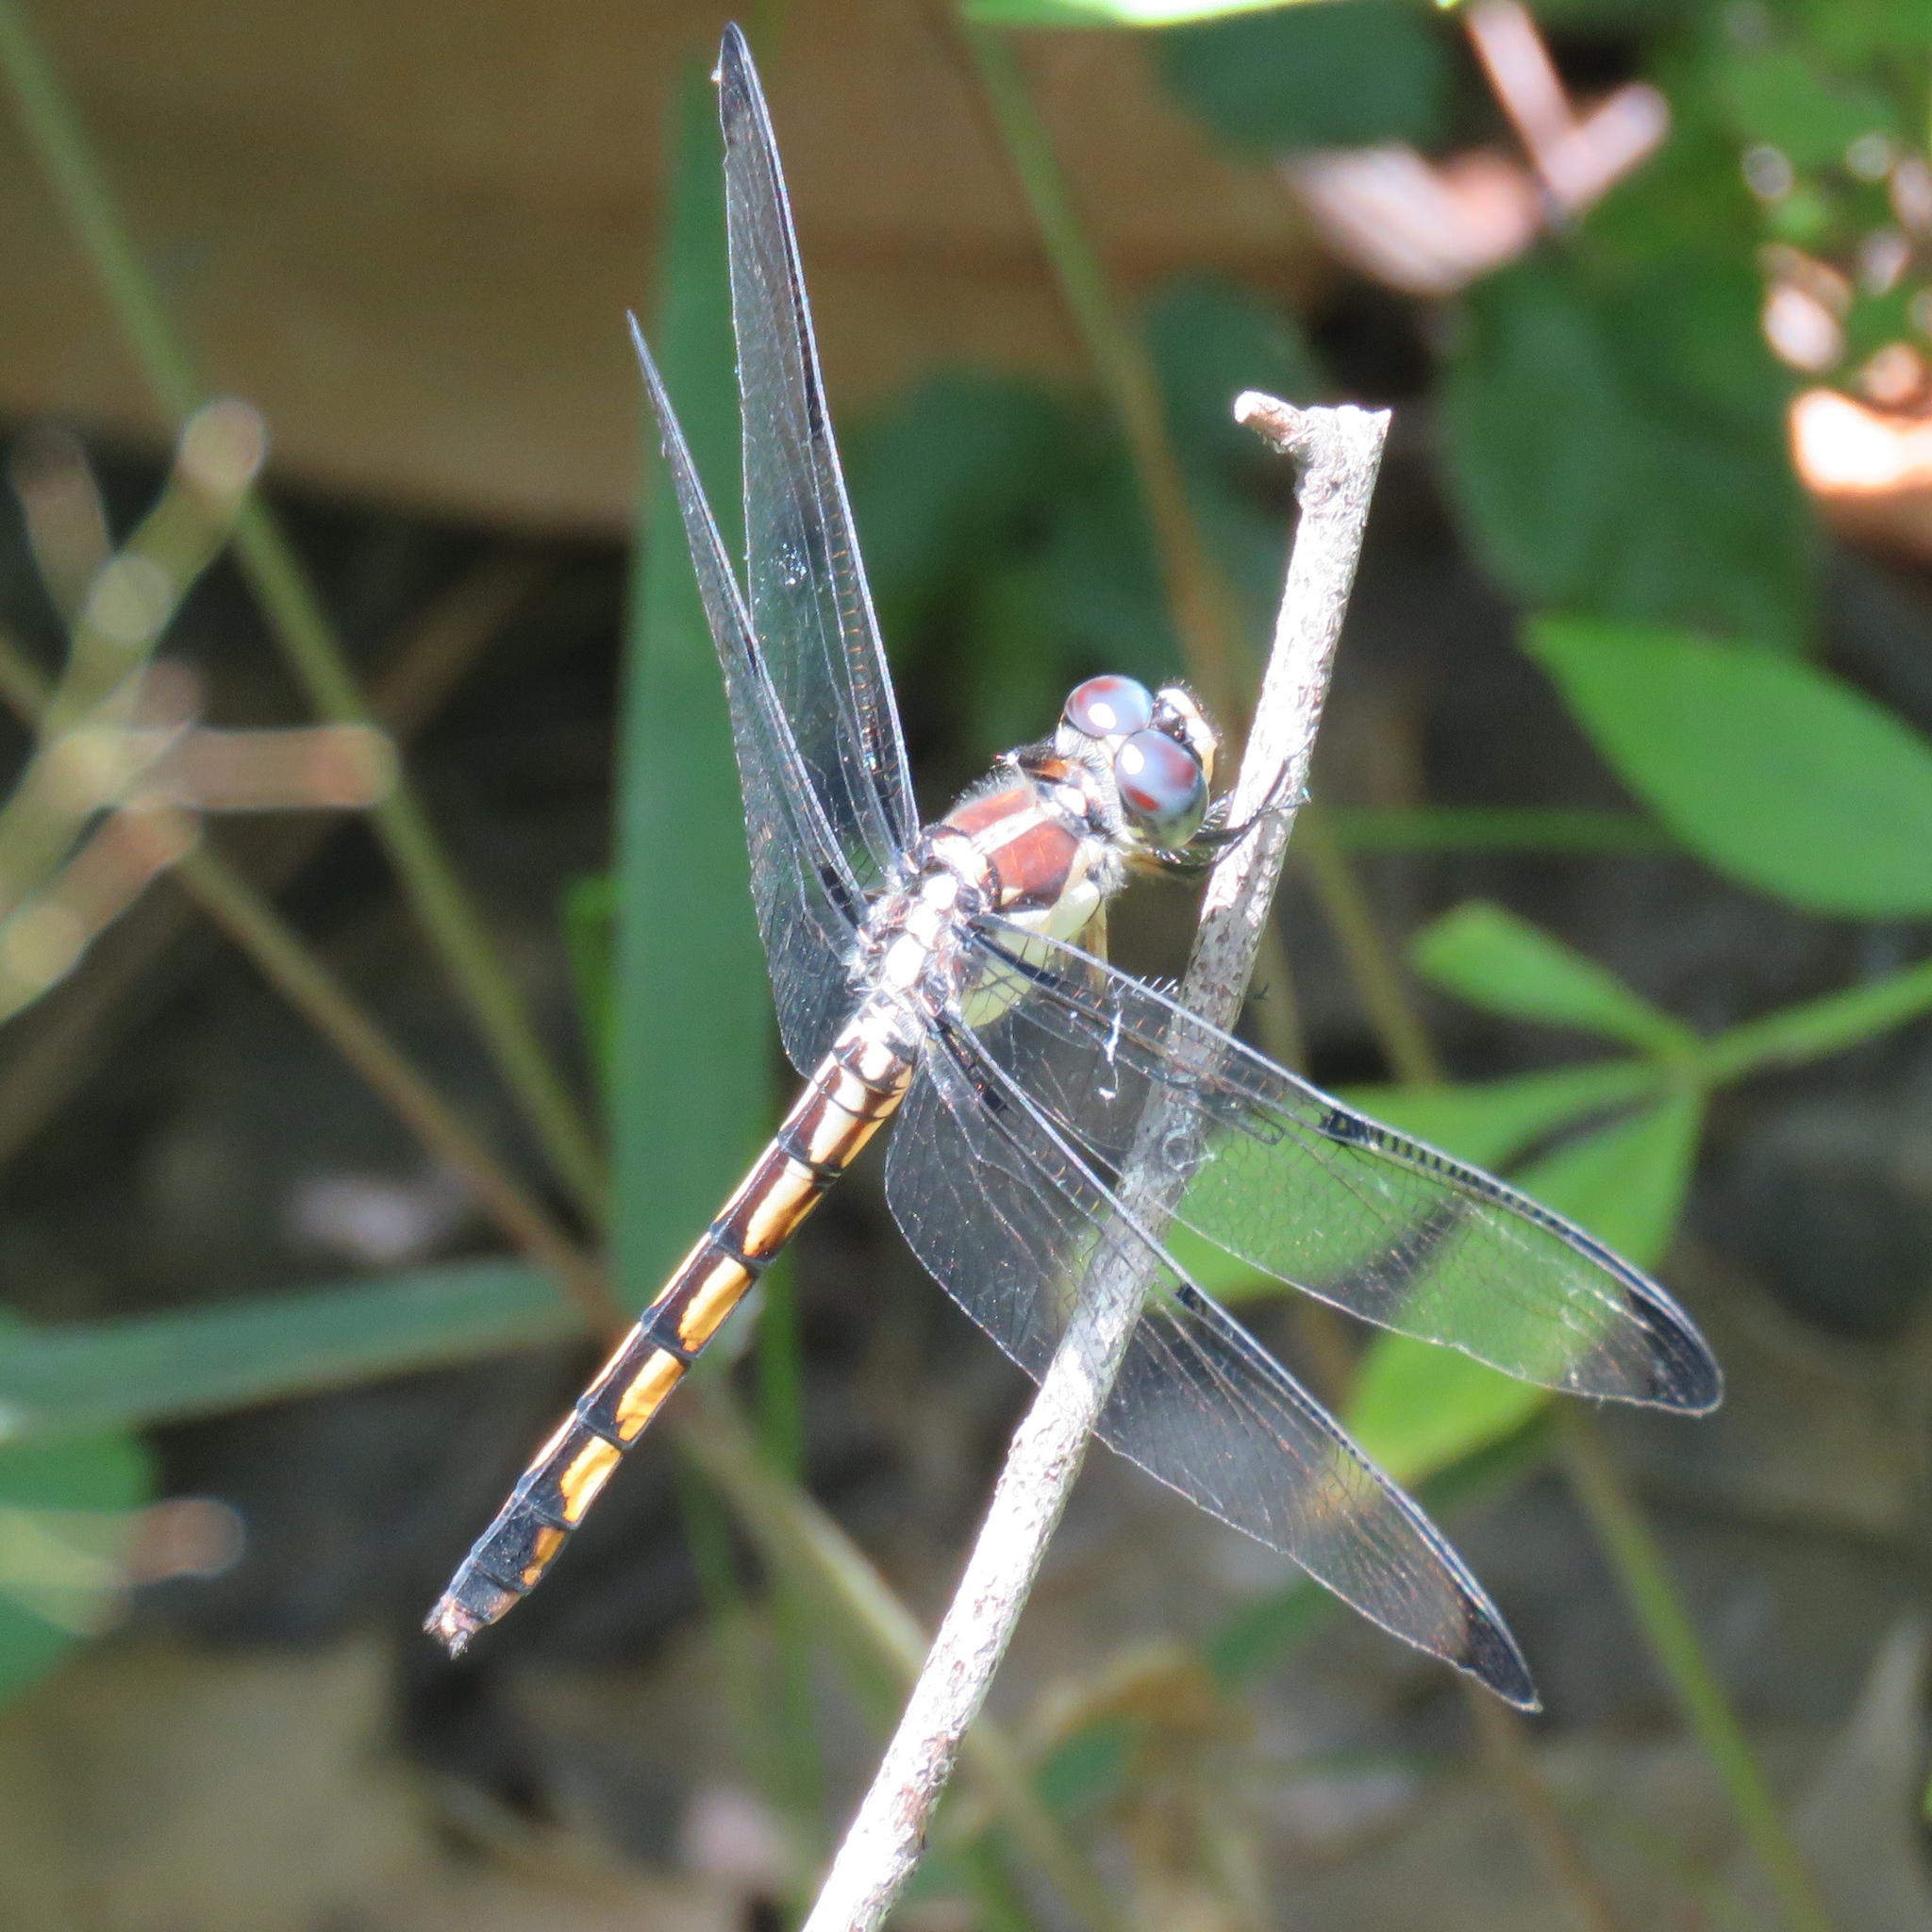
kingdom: Animalia
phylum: Arthropoda
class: Insecta
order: Odonata
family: Libellulidae
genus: Libellula
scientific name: Libellula vibrans
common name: Great blue skimmer
